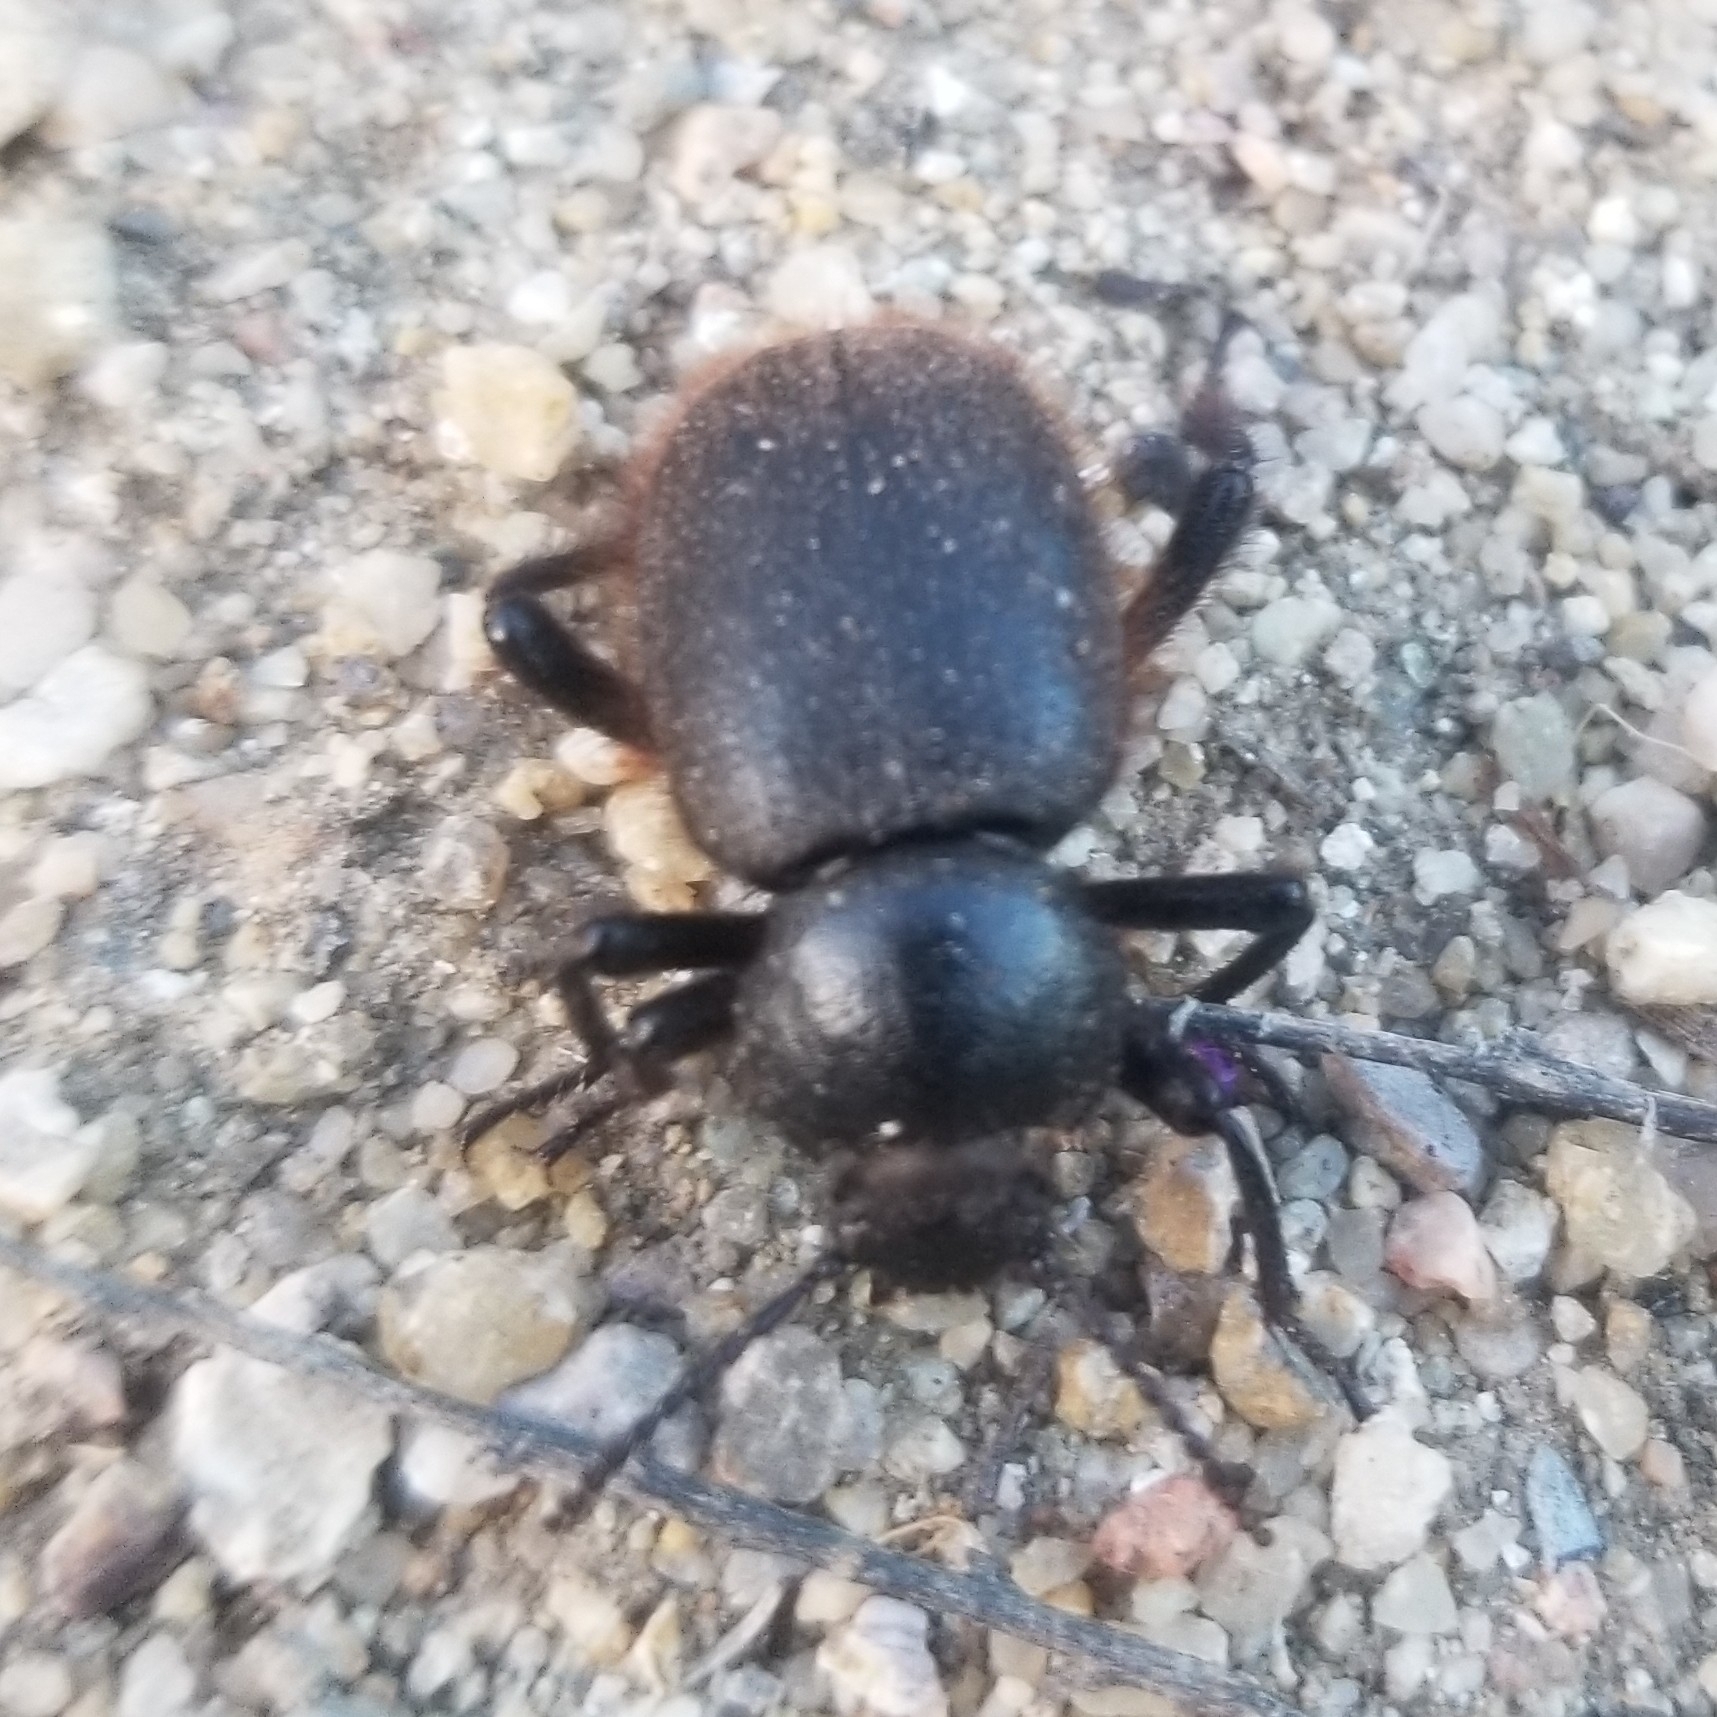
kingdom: Animalia
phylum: Arthropoda
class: Insecta
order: Coleoptera
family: Tenebrionidae
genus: Eleodes
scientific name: Eleodes osculans
